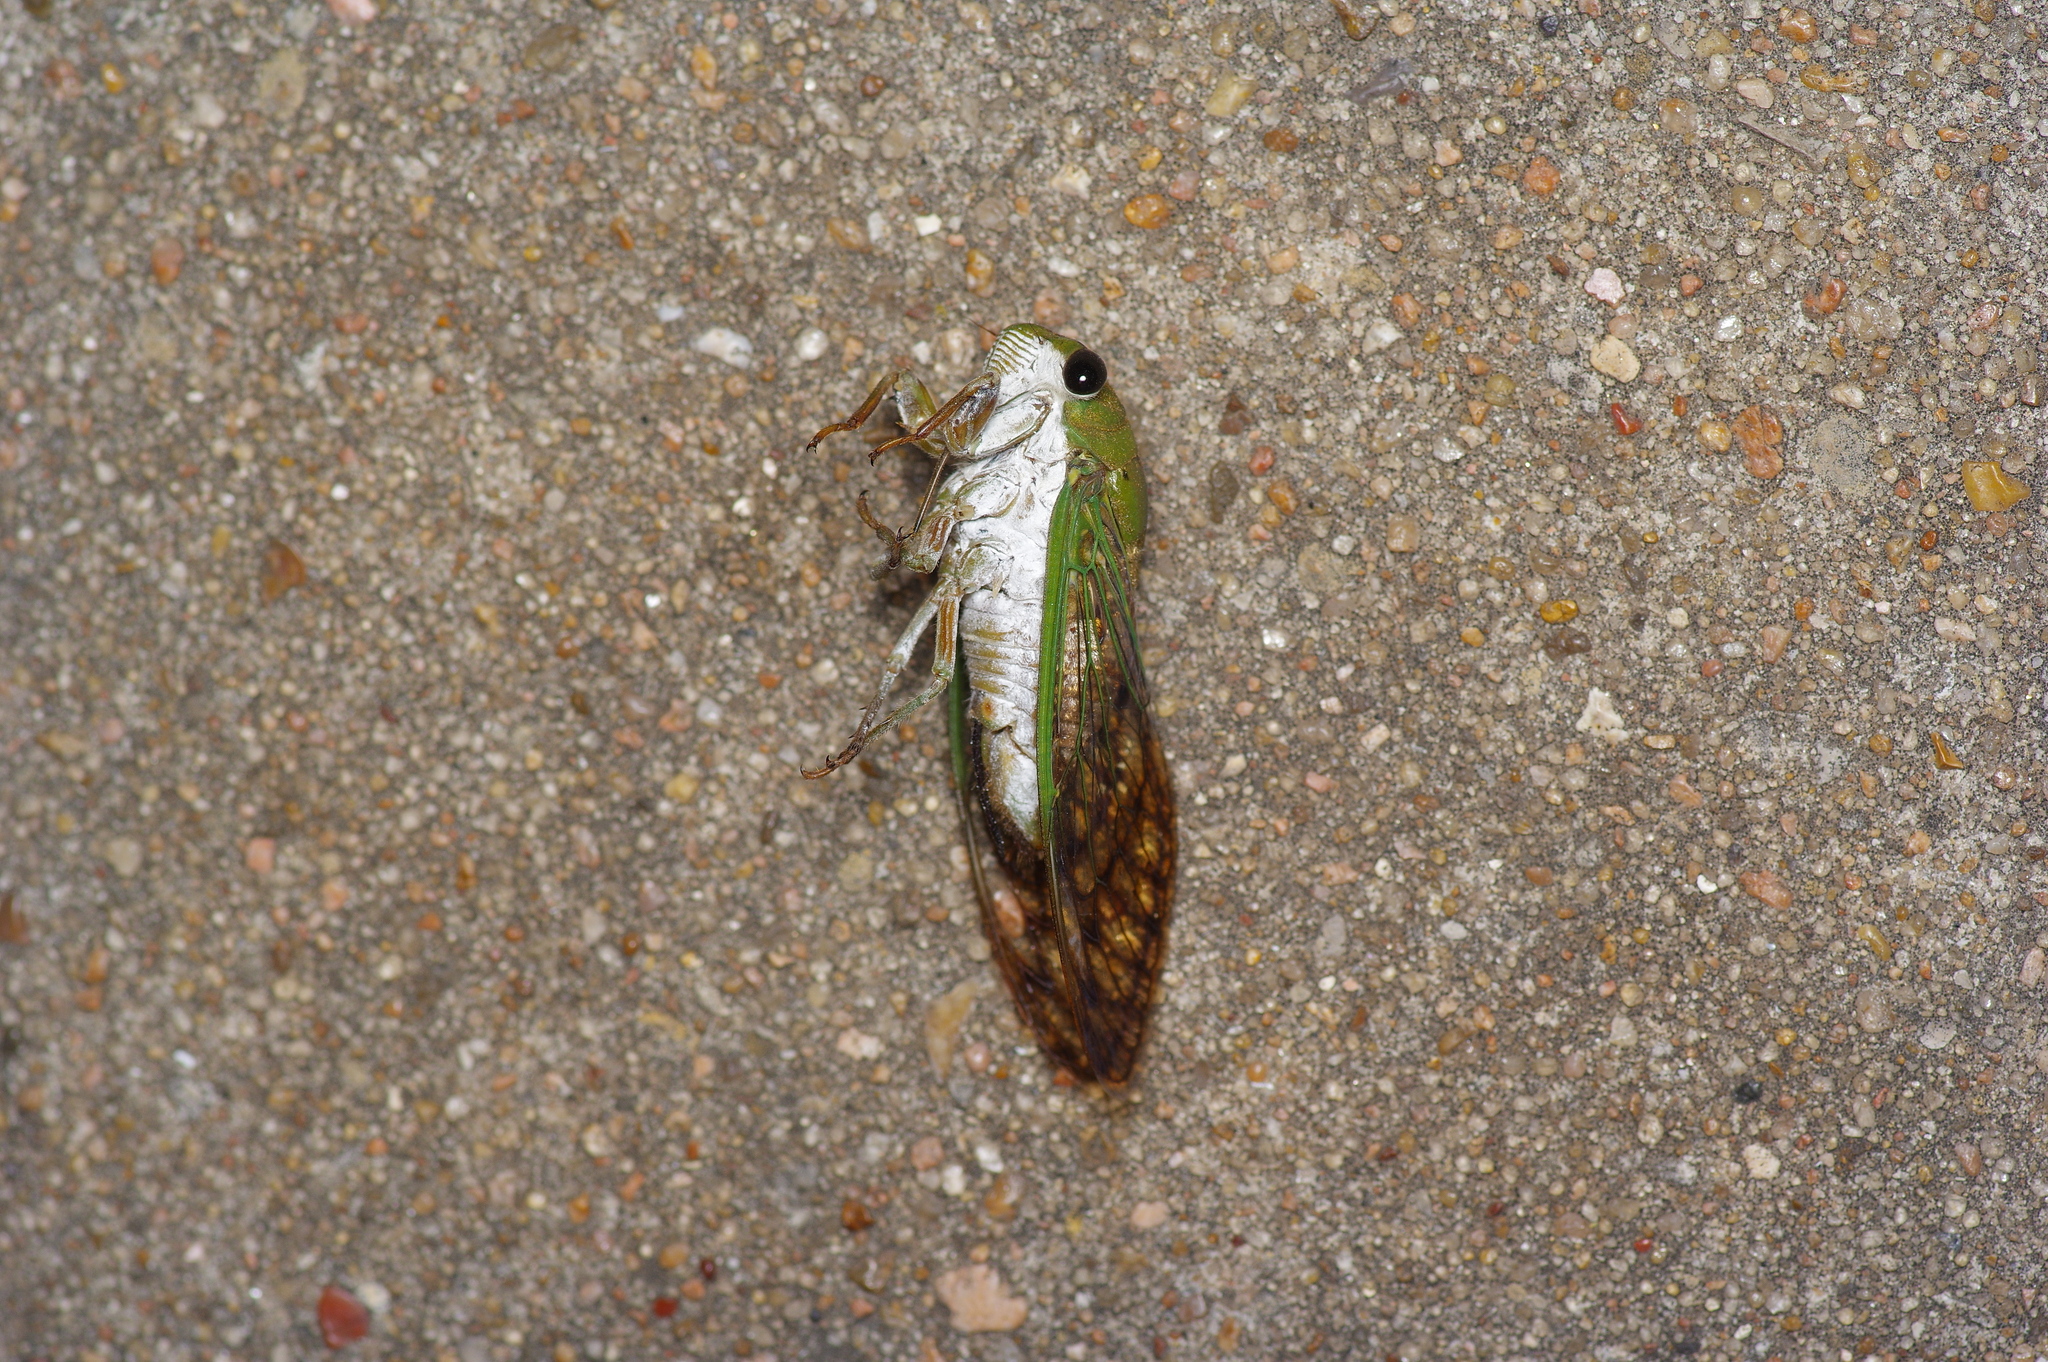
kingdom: Animalia
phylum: Arthropoda
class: Insecta
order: Hemiptera
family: Cicadidae
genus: Neotibicen
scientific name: Neotibicen superbus
